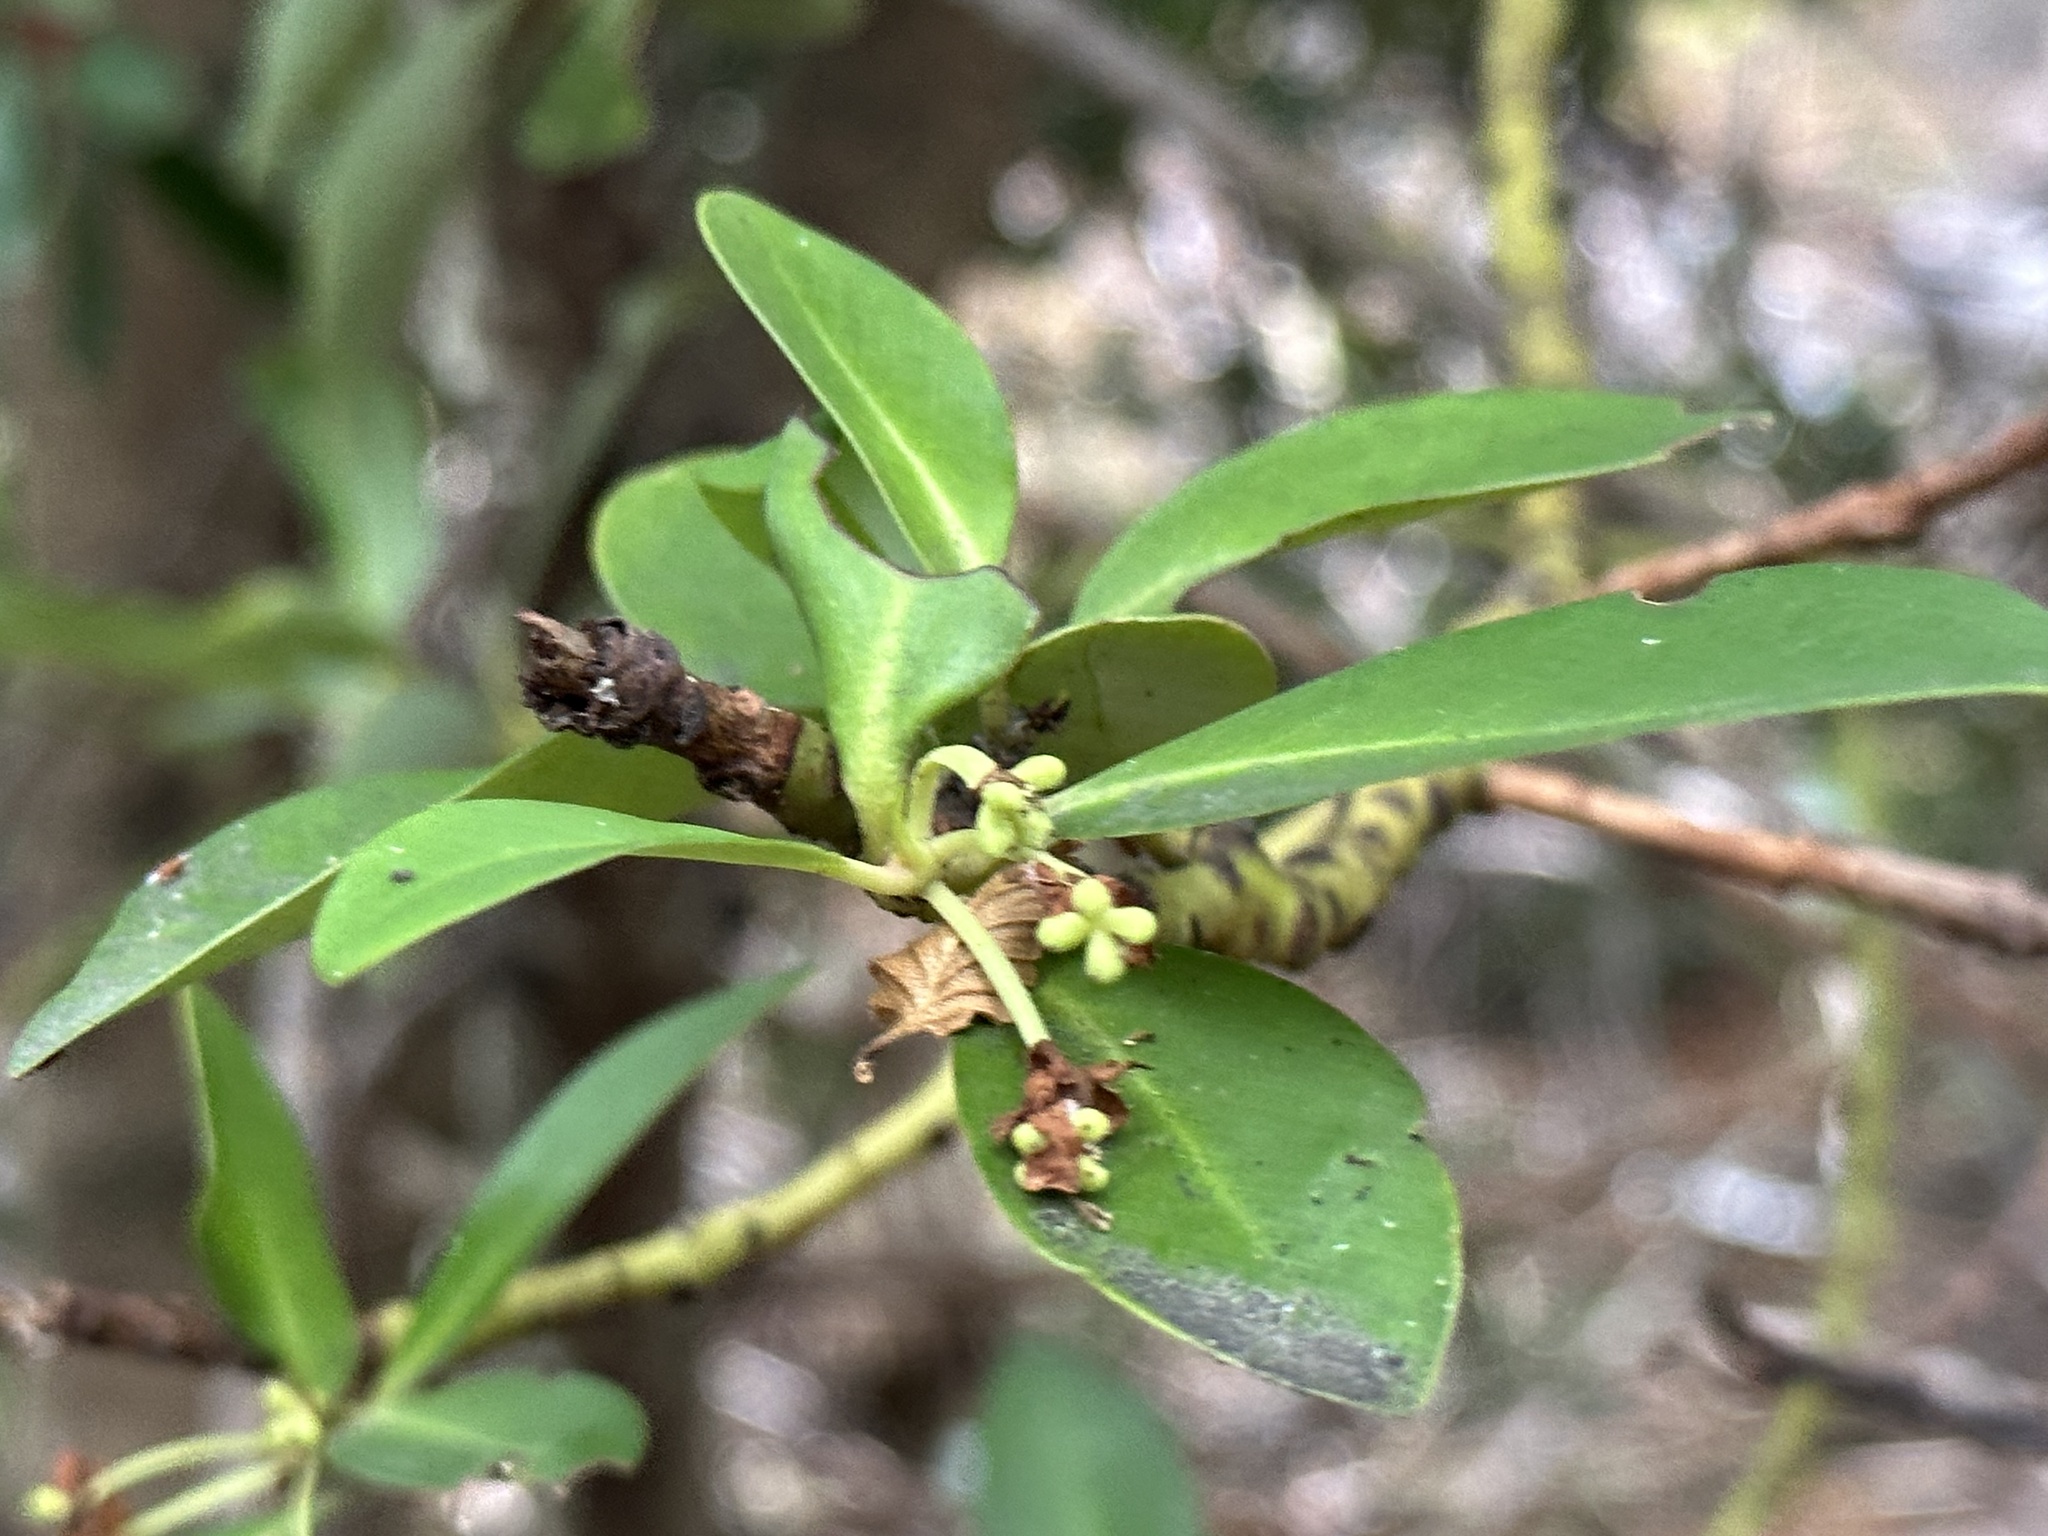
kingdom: Plantae
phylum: Tracheophyta
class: Magnoliopsida
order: Canellales
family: Winteraceae
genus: Drimys
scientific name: Drimys winteri
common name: Winter's-bark
